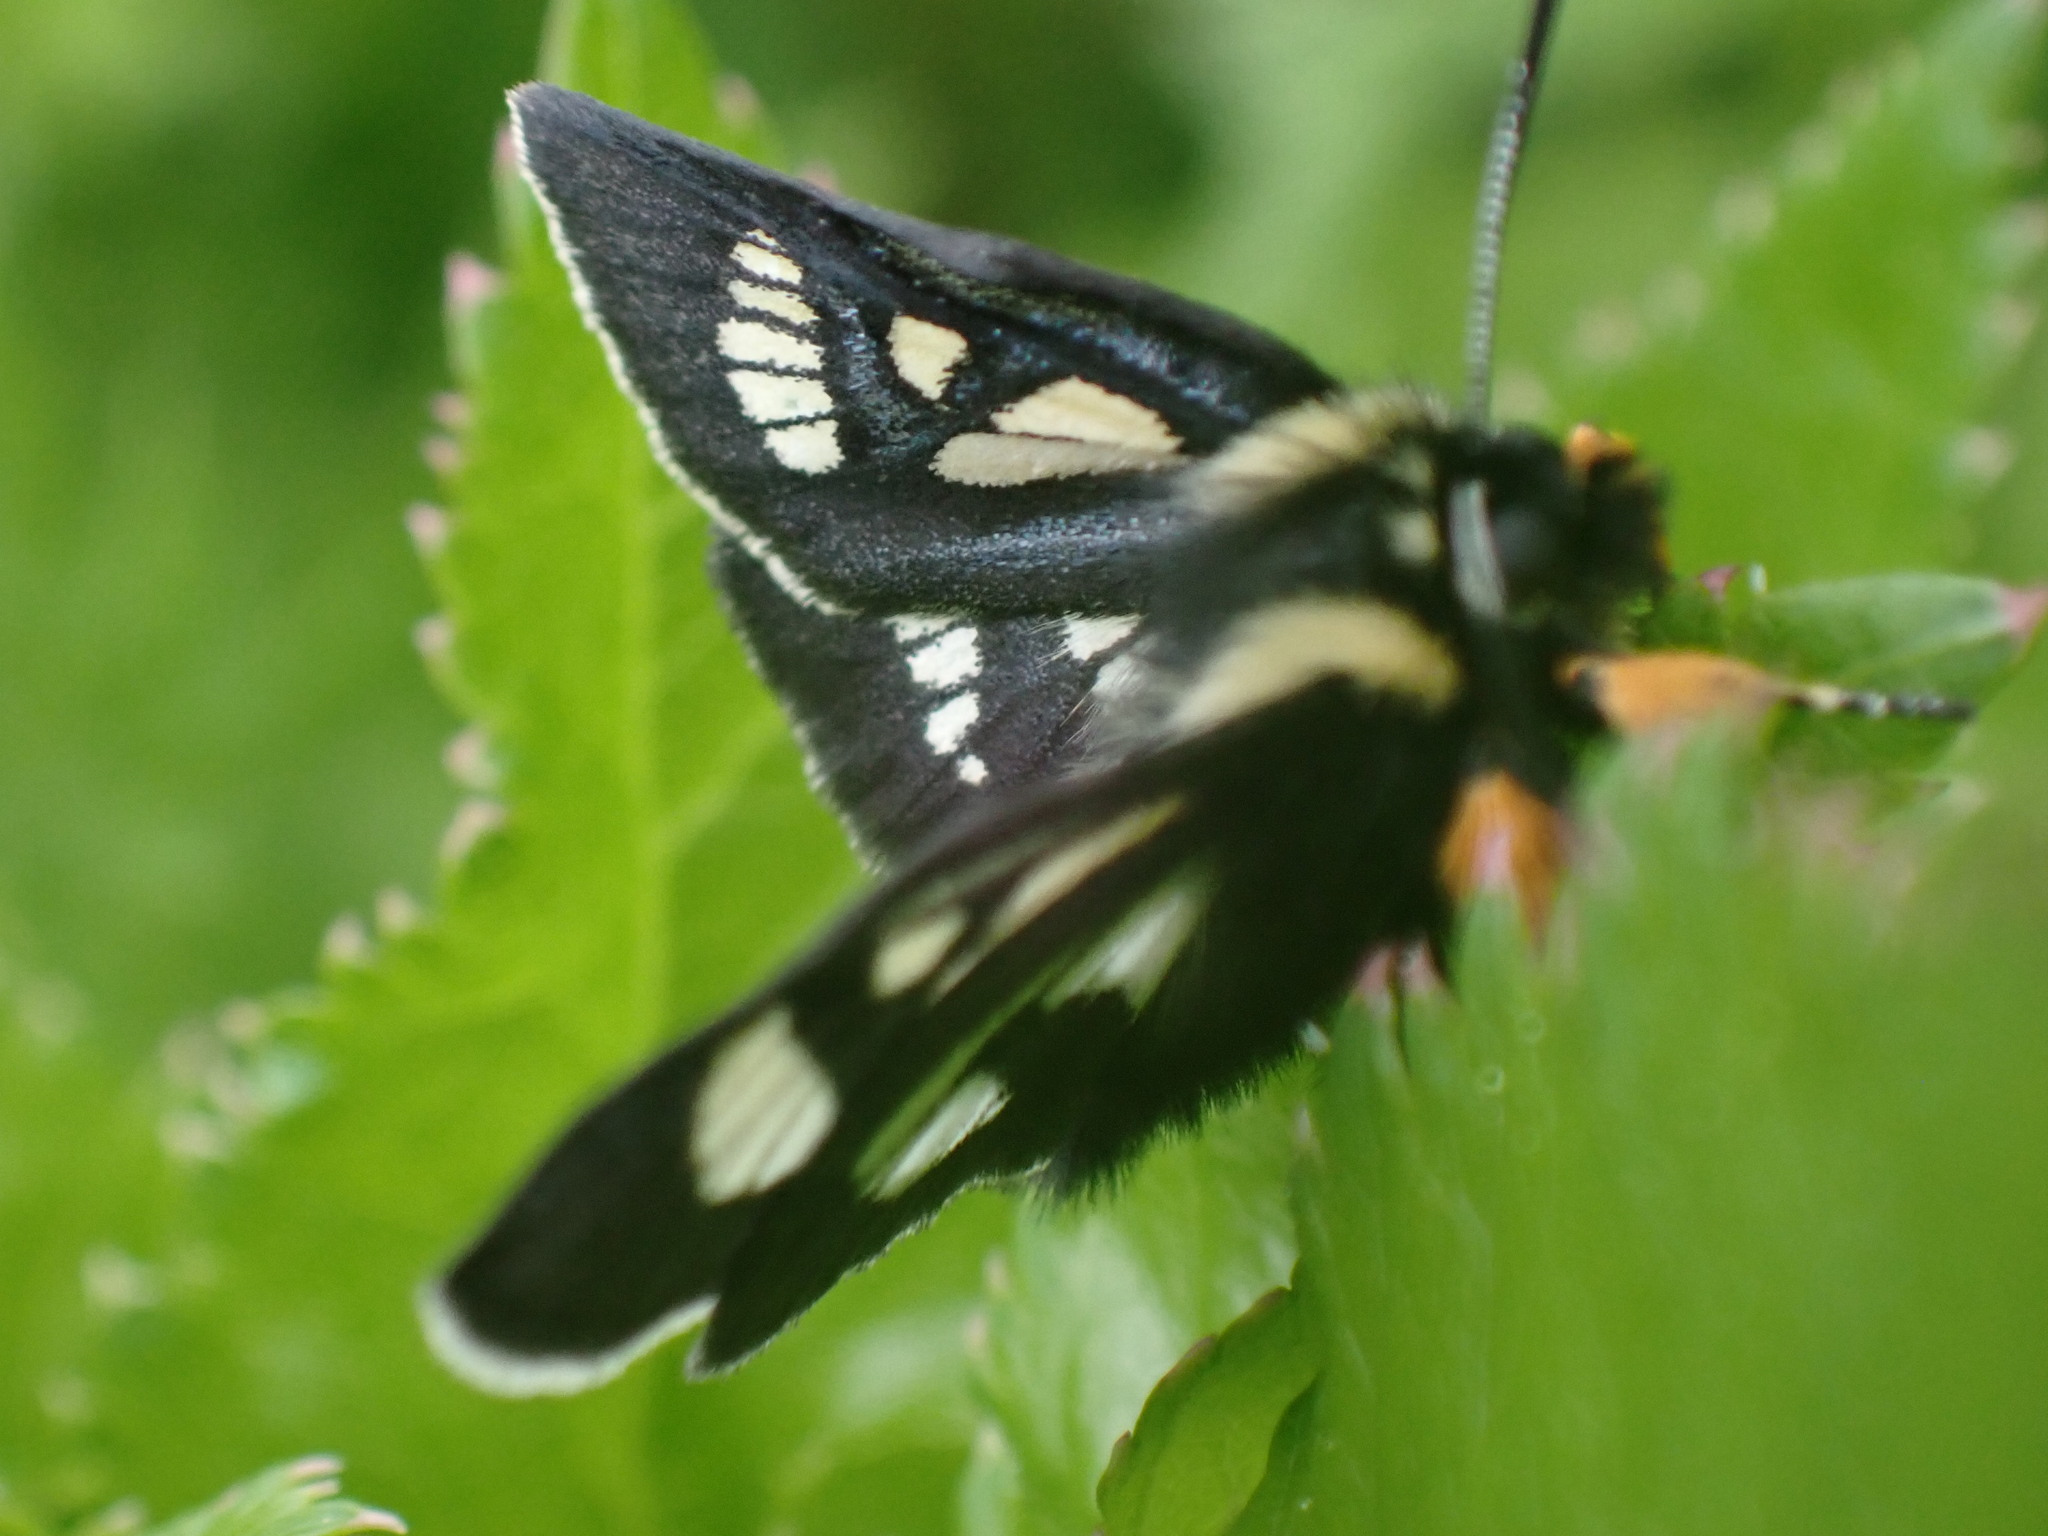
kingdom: Animalia
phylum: Arthropoda
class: Insecta
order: Lepidoptera
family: Noctuidae
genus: Alypia
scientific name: Alypia maccullochii
